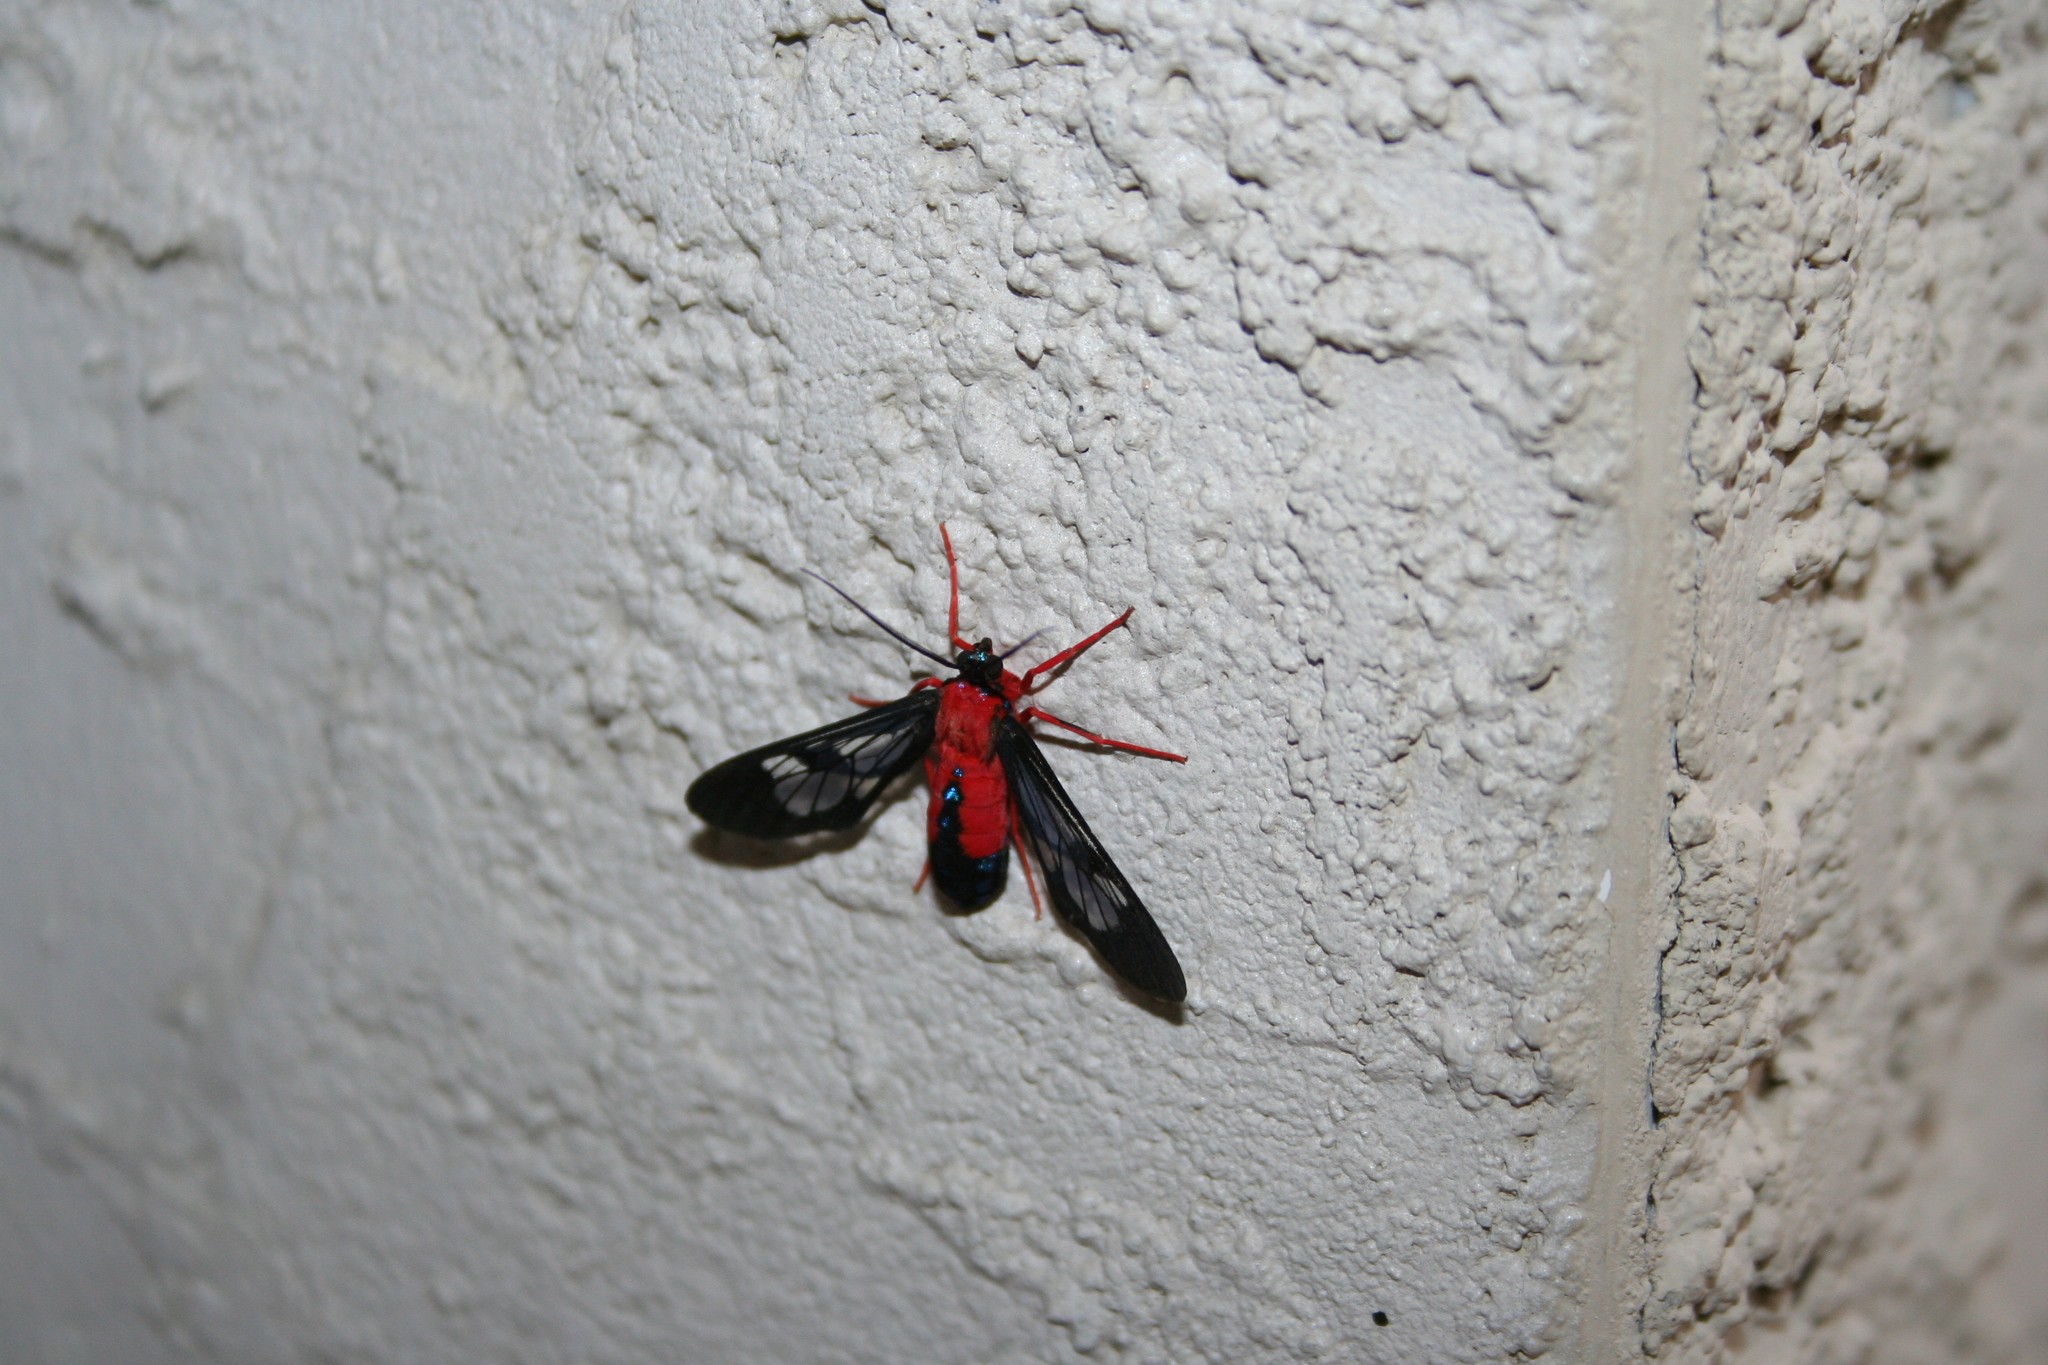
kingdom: Animalia
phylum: Arthropoda
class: Insecta
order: Lepidoptera
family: Erebidae
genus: Cosmosoma
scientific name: Cosmosoma myrodora
